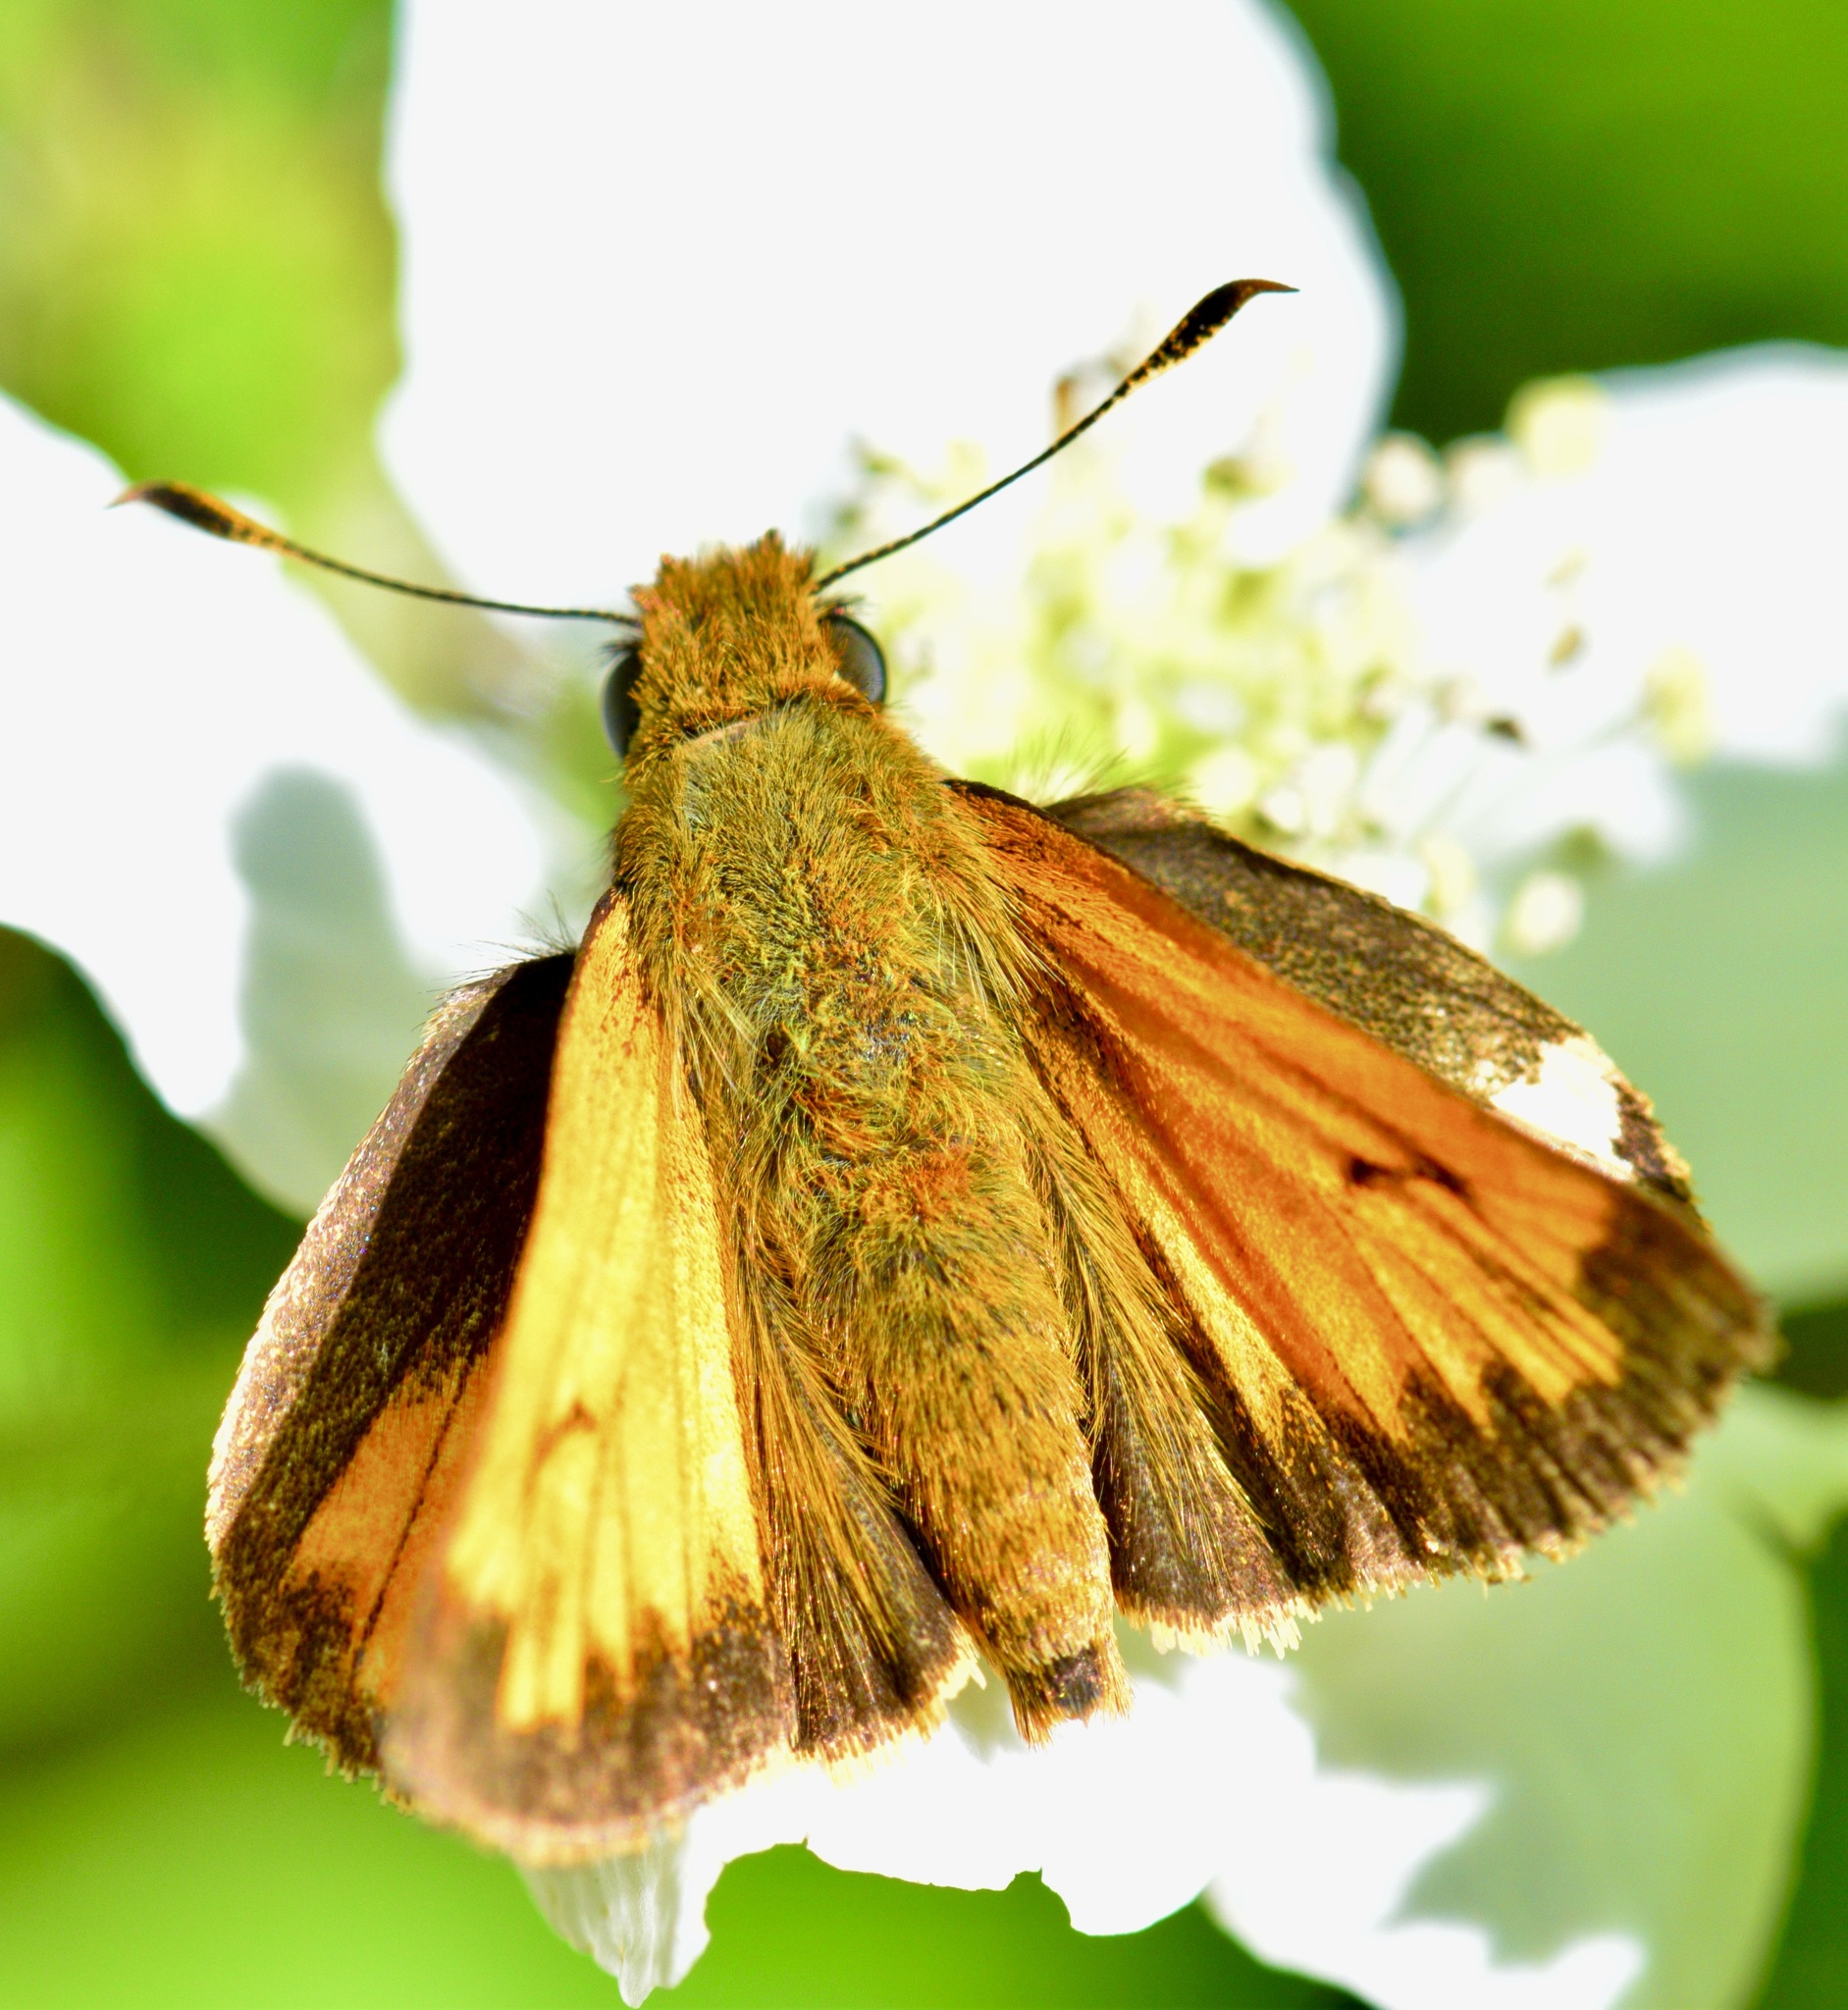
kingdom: Animalia
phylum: Arthropoda
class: Insecta
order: Lepidoptera
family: Hesperiidae
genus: Lon
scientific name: Lon hobomok
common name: Hobomok skipper
